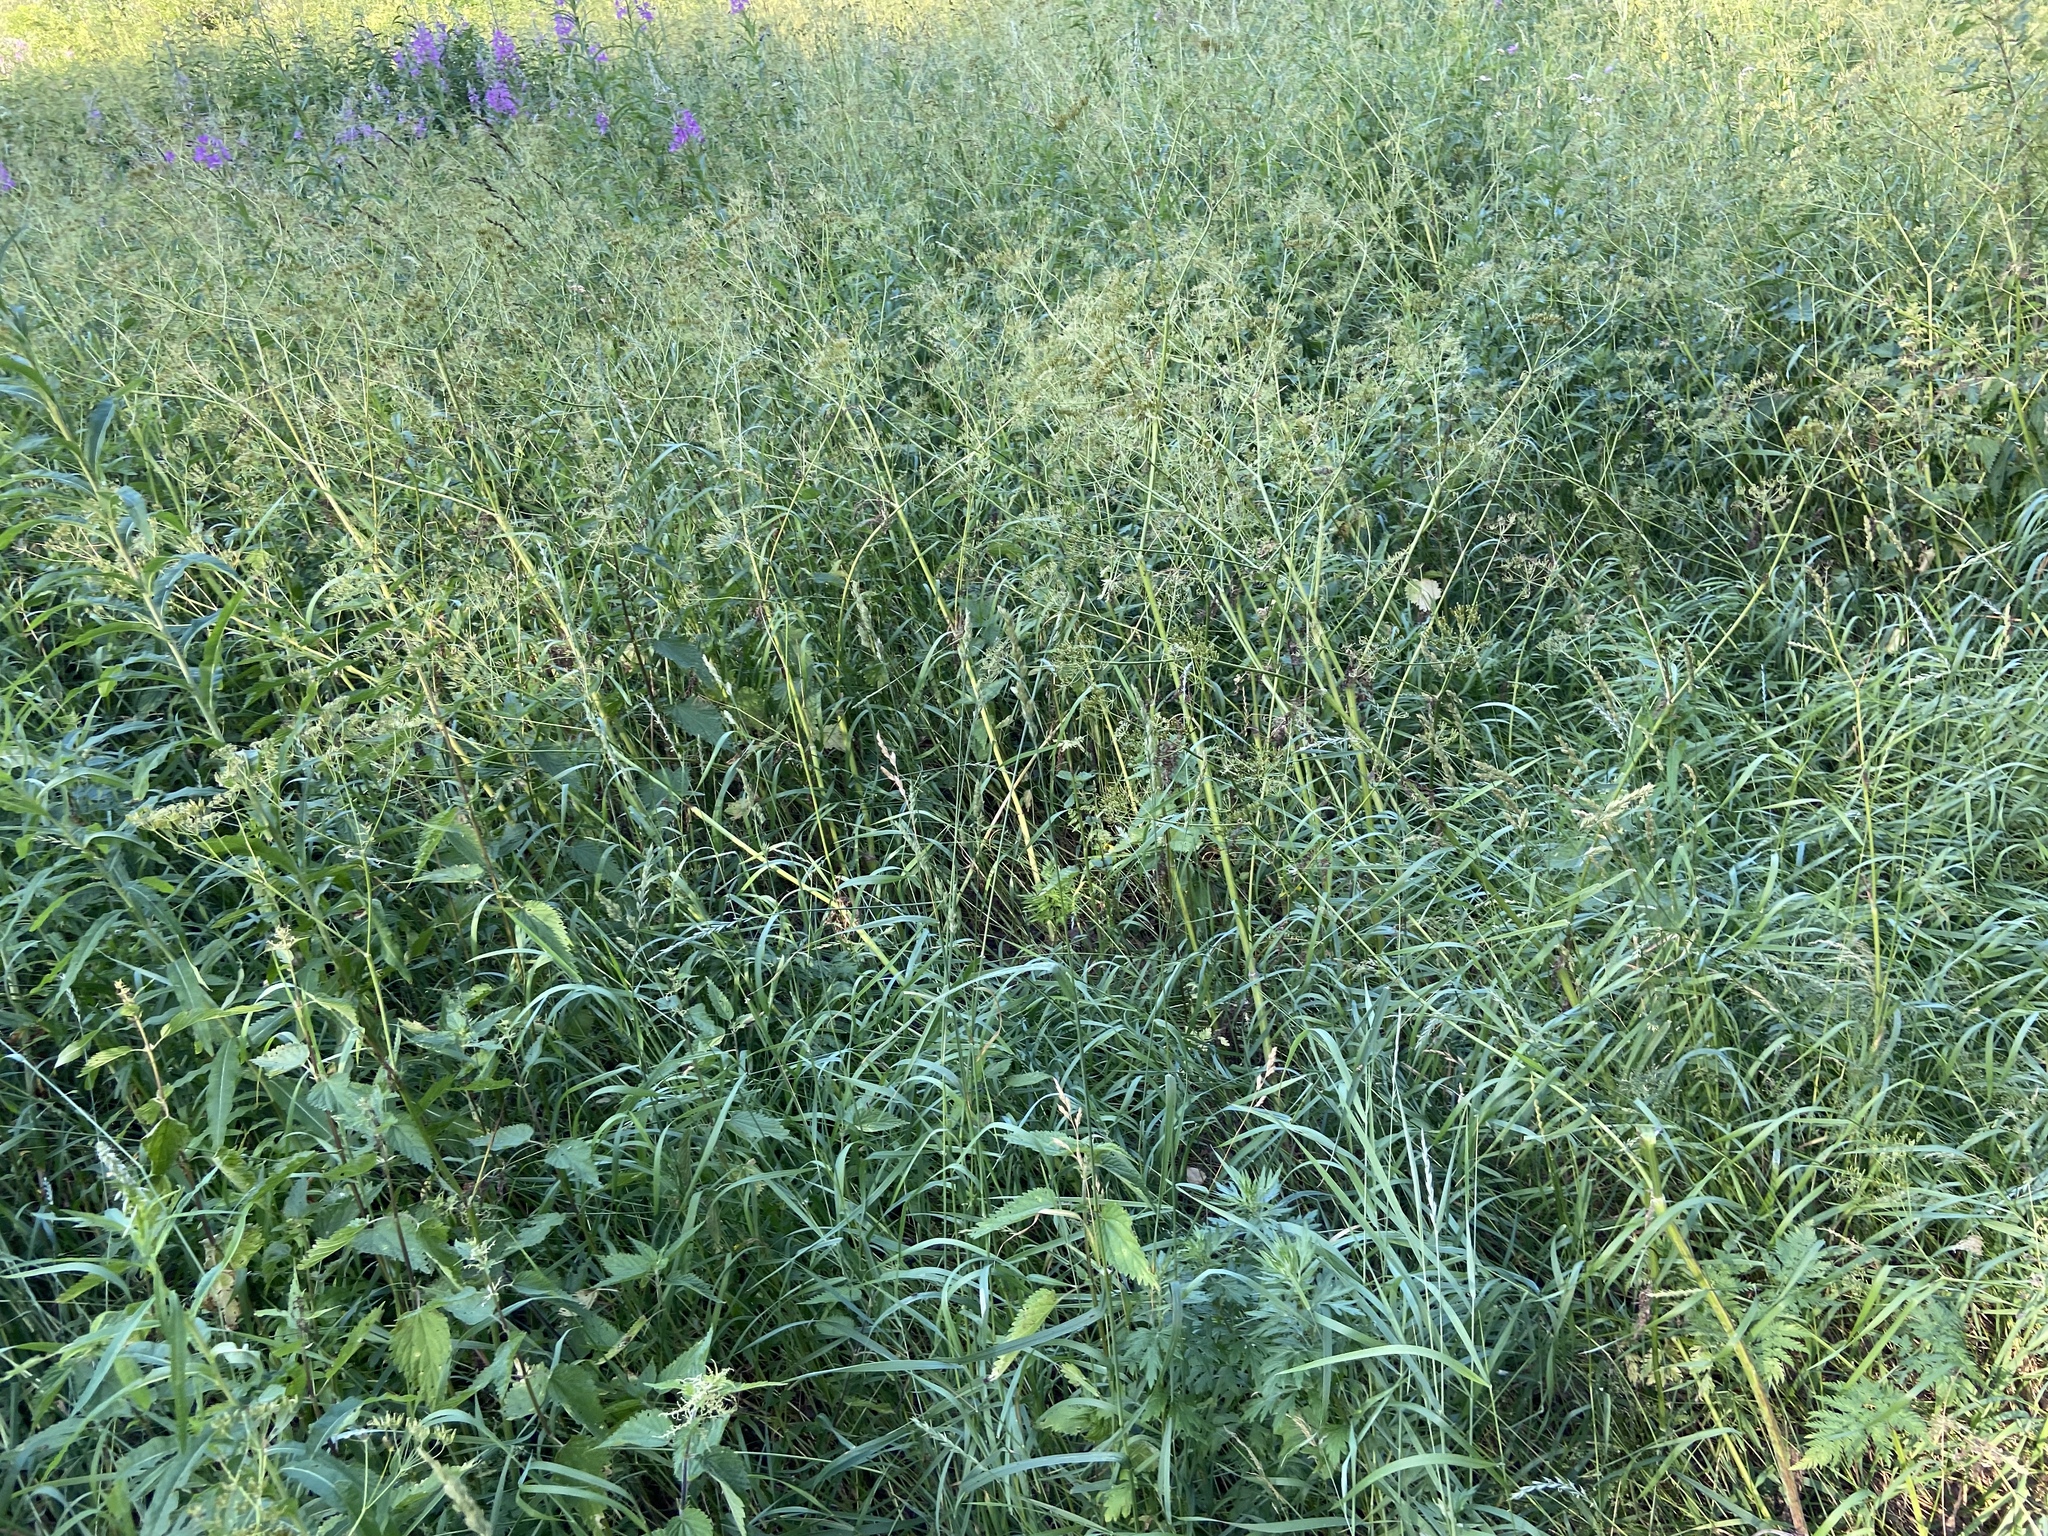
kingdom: Plantae
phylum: Tracheophyta
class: Magnoliopsida
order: Apiales
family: Apiaceae
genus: Anthriscus
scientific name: Anthriscus sylvestris
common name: Cow parsley
